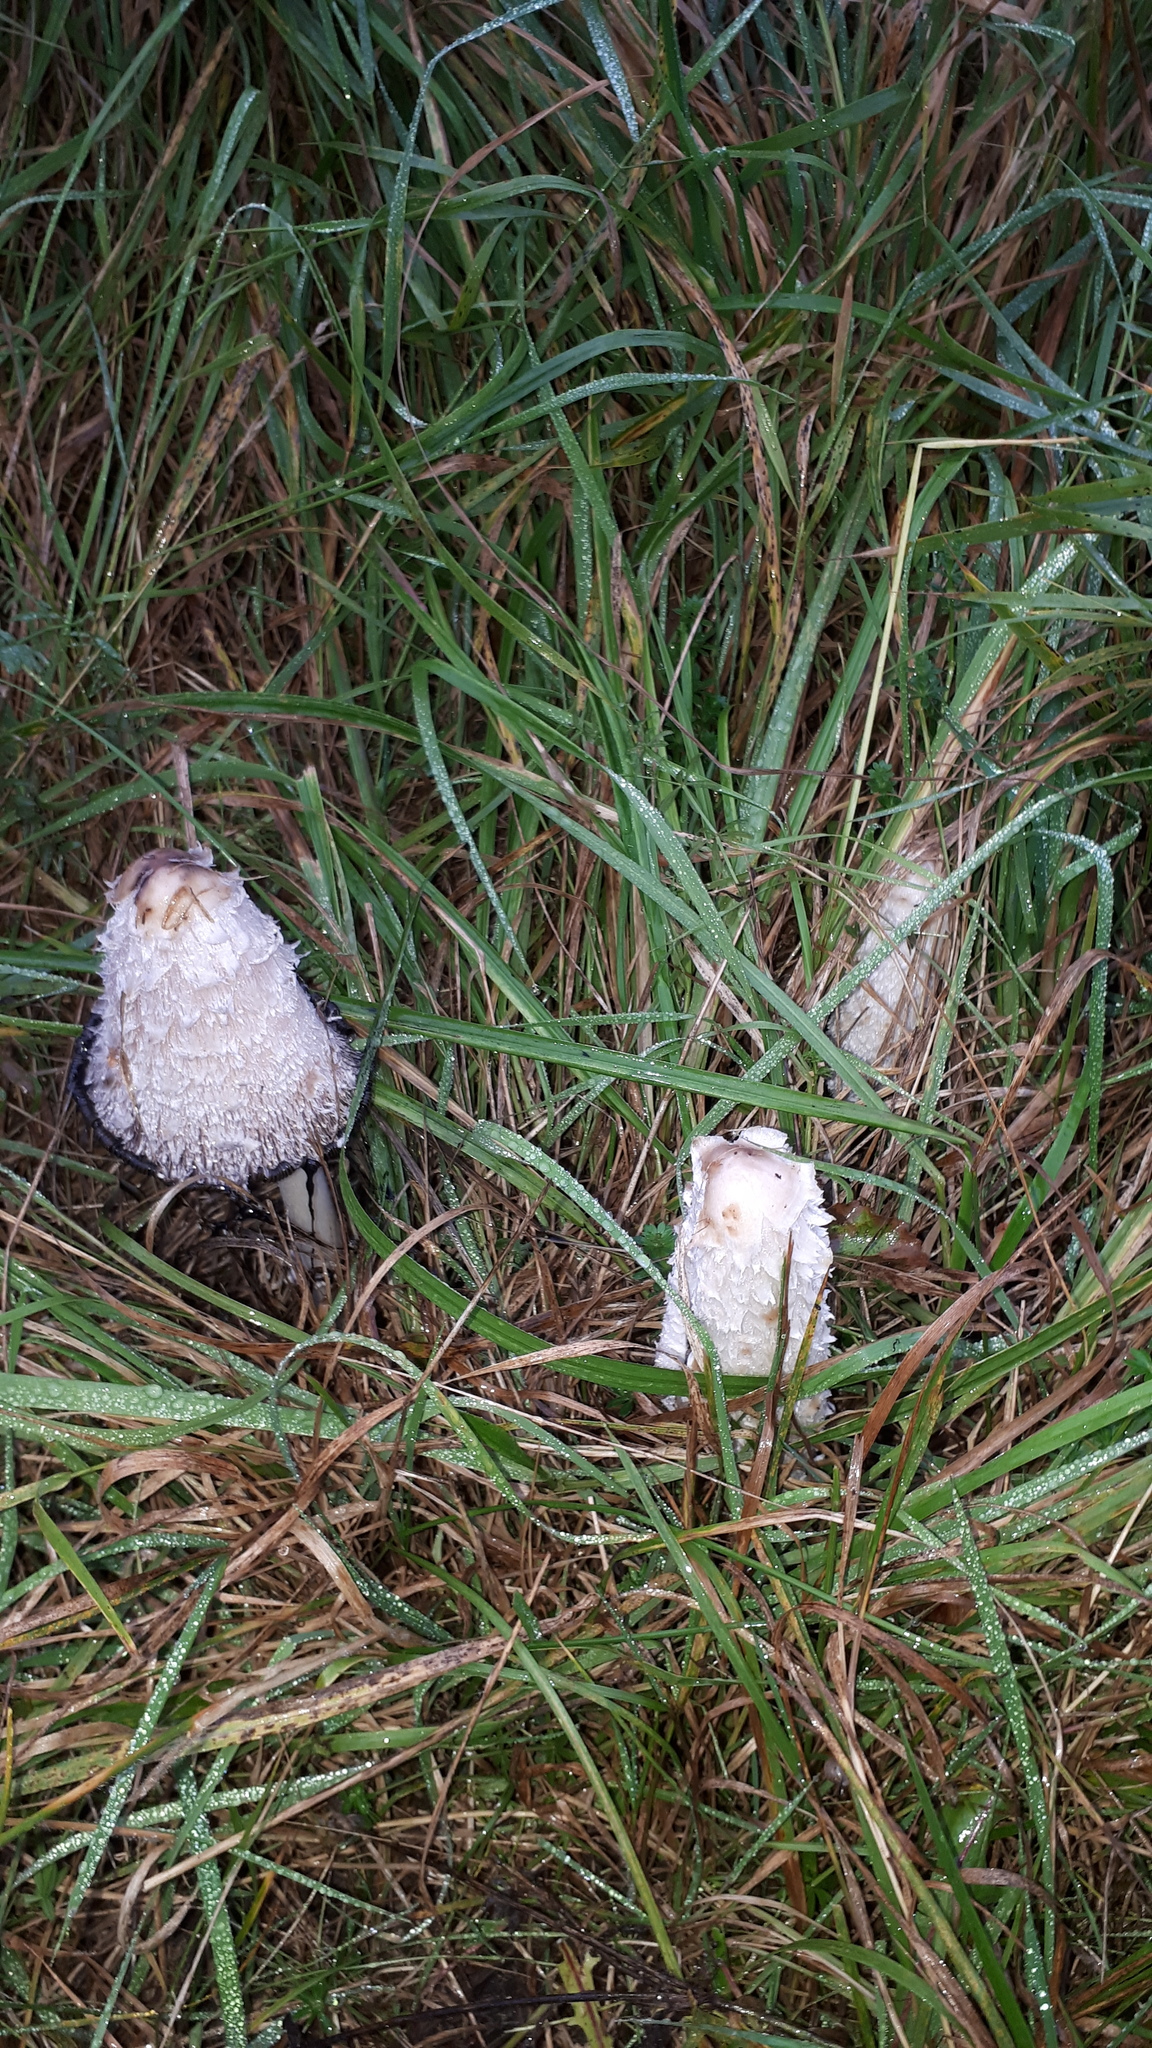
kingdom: Fungi
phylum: Basidiomycota
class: Agaricomycetes
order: Agaricales
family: Agaricaceae
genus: Coprinus
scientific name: Coprinus comatus
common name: Lawyer's wig
